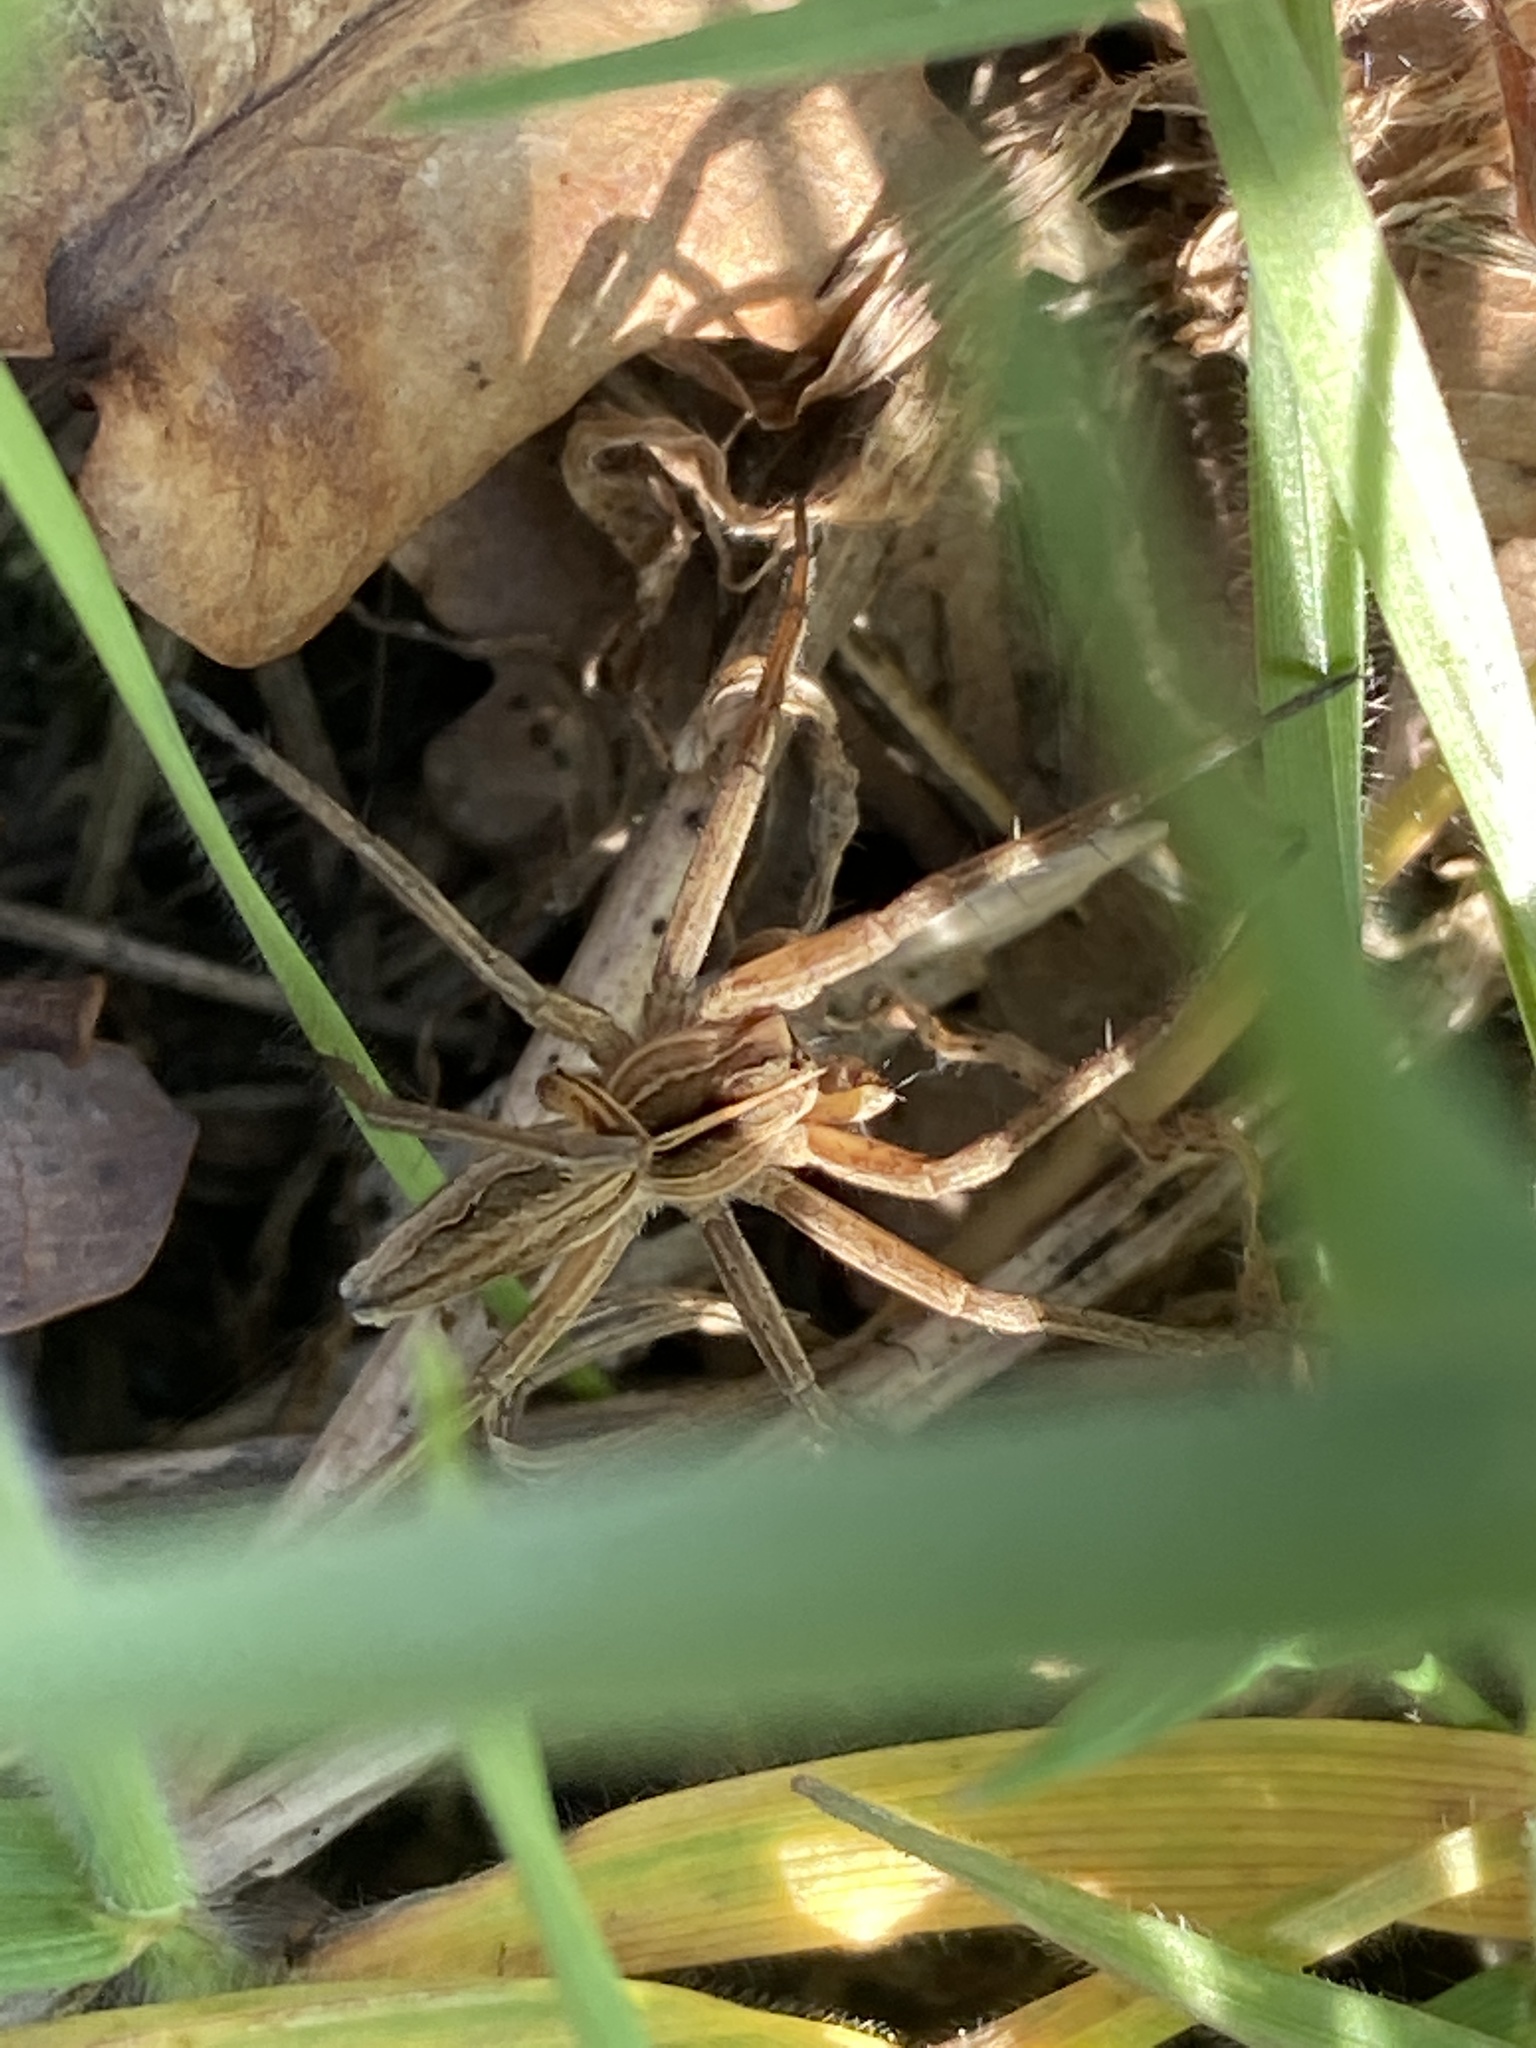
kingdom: Animalia
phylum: Arthropoda
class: Arachnida
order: Araneae
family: Pisauridae
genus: Pisaura
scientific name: Pisaura mirabilis
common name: Tent spider
